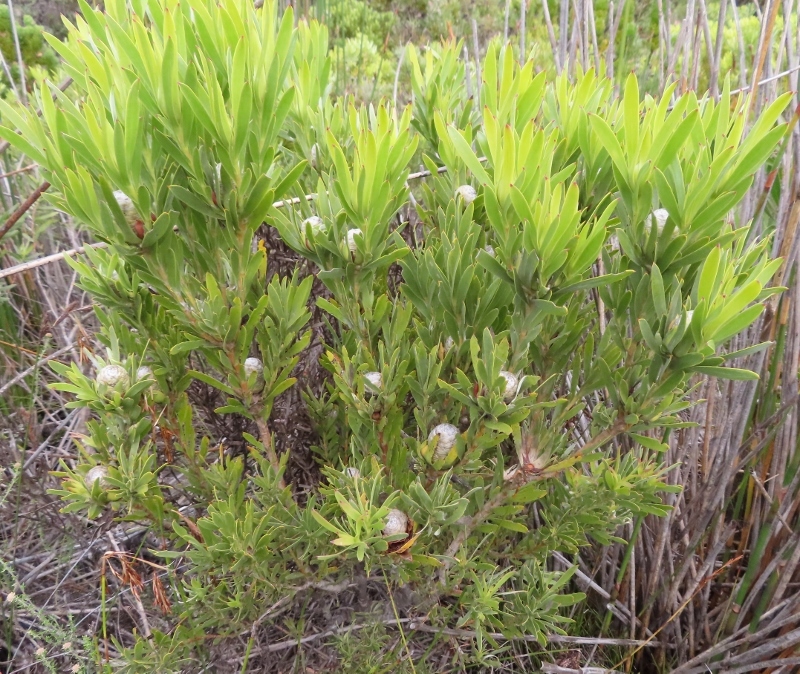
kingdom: Plantae
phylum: Tracheophyta
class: Magnoliopsida
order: Proteales
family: Proteaceae
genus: Leucadendron
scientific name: Leucadendron meridianum
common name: Limestone conebush
